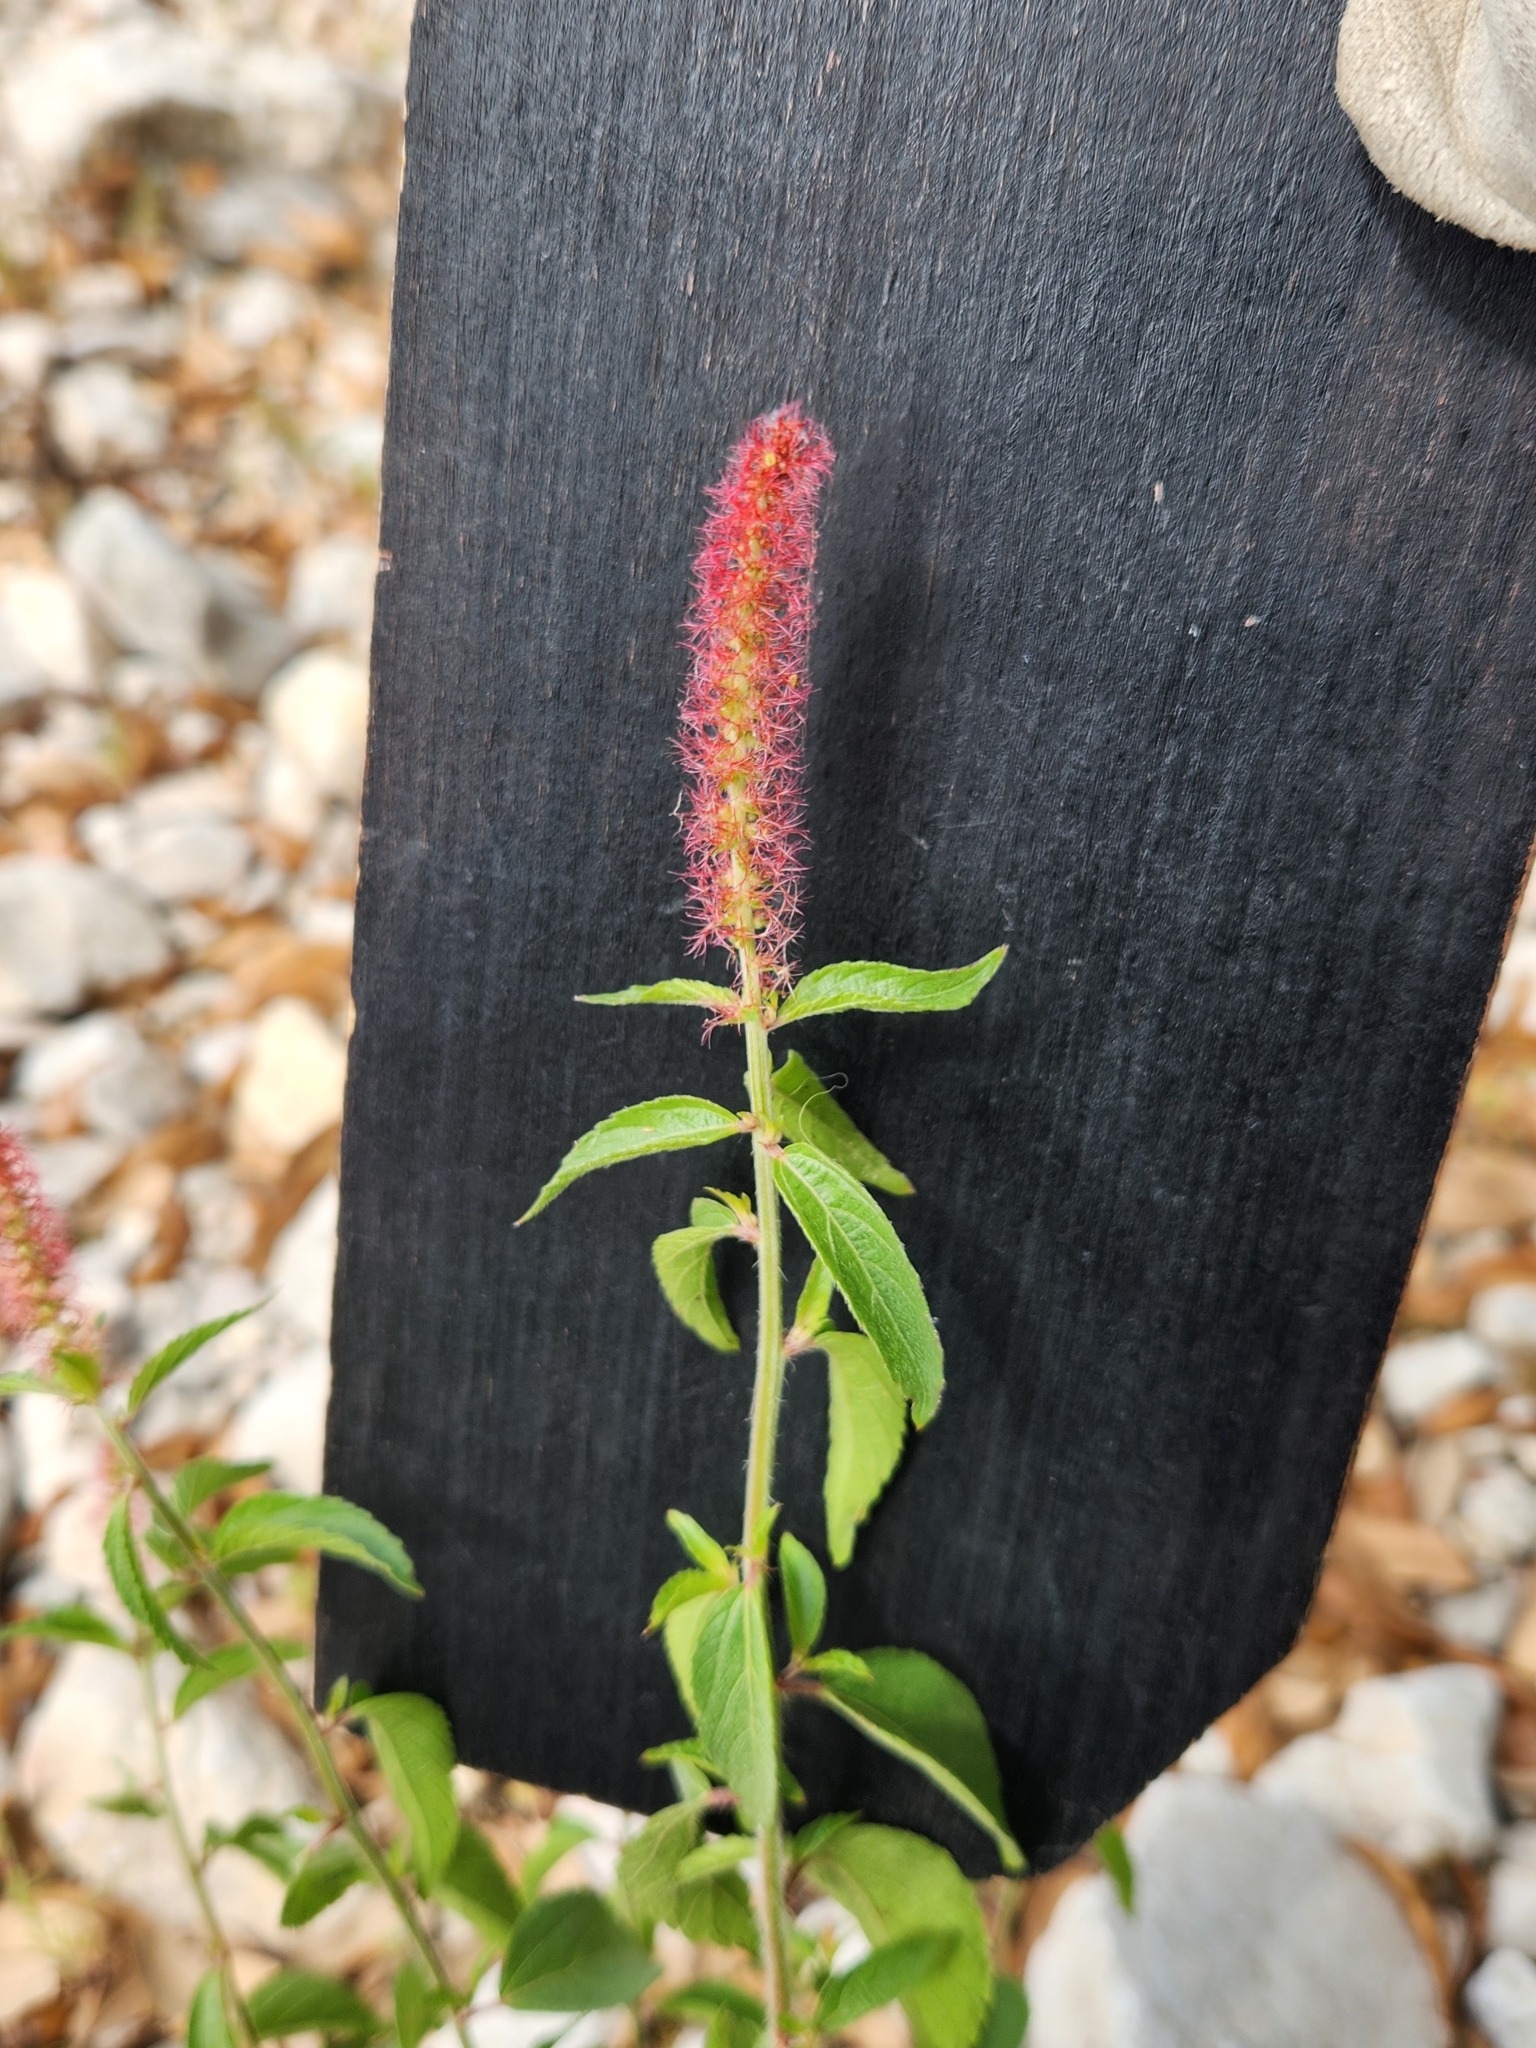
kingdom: Plantae
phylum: Tracheophyta
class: Magnoliopsida
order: Malpighiales
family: Euphorbiaceae
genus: Acalypha
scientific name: Acalypha phleoides
